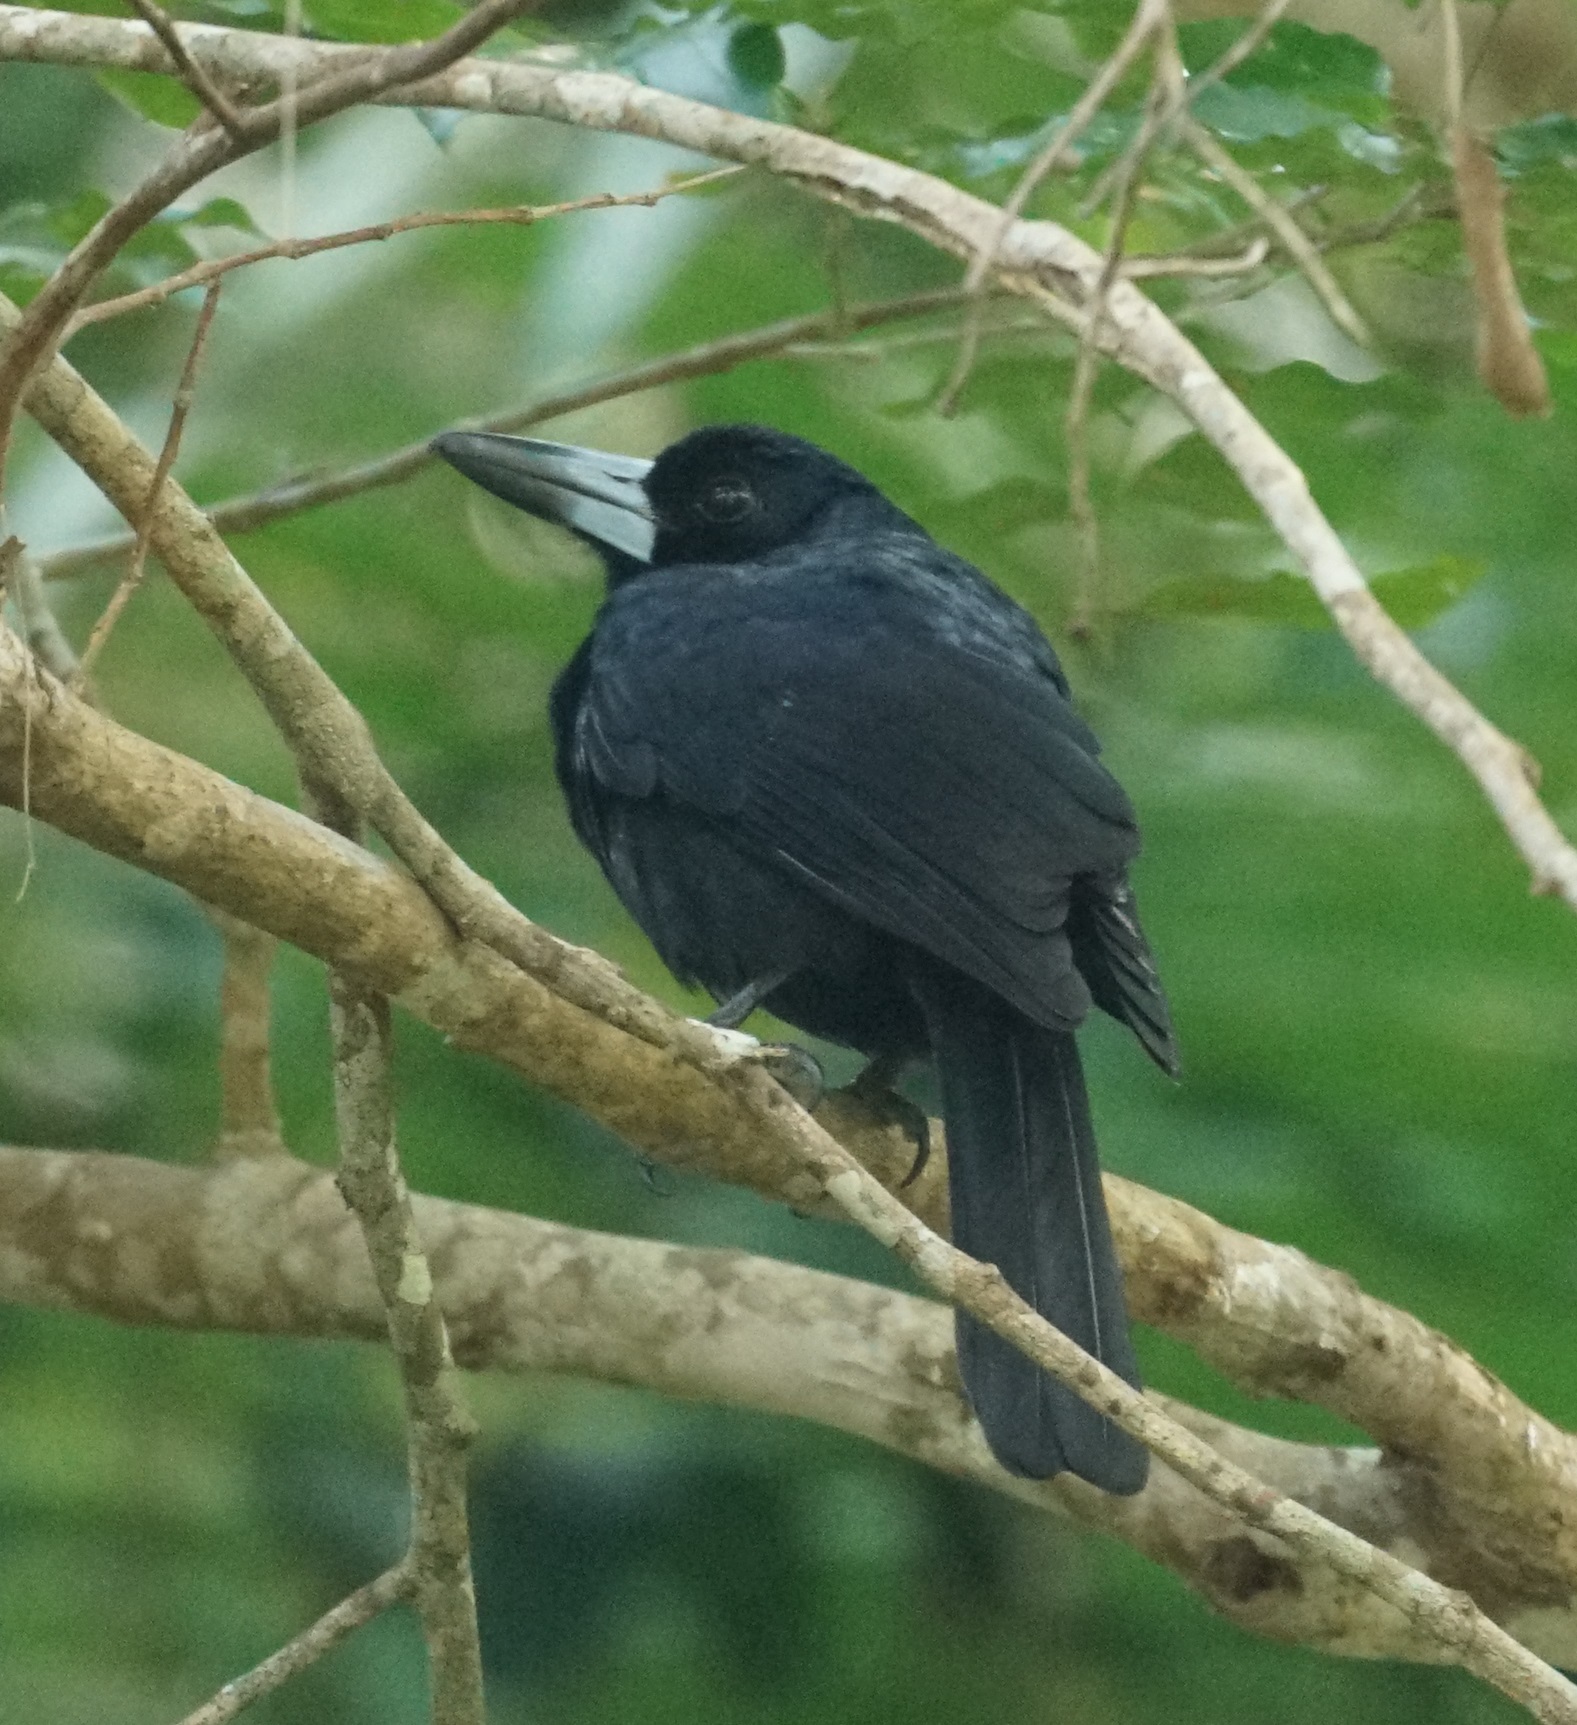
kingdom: Animalia
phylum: Chordata
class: Aves
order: Passeriformes
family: Artamidae
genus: Melloria
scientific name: Melloria quoyi
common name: Black butcherbird
